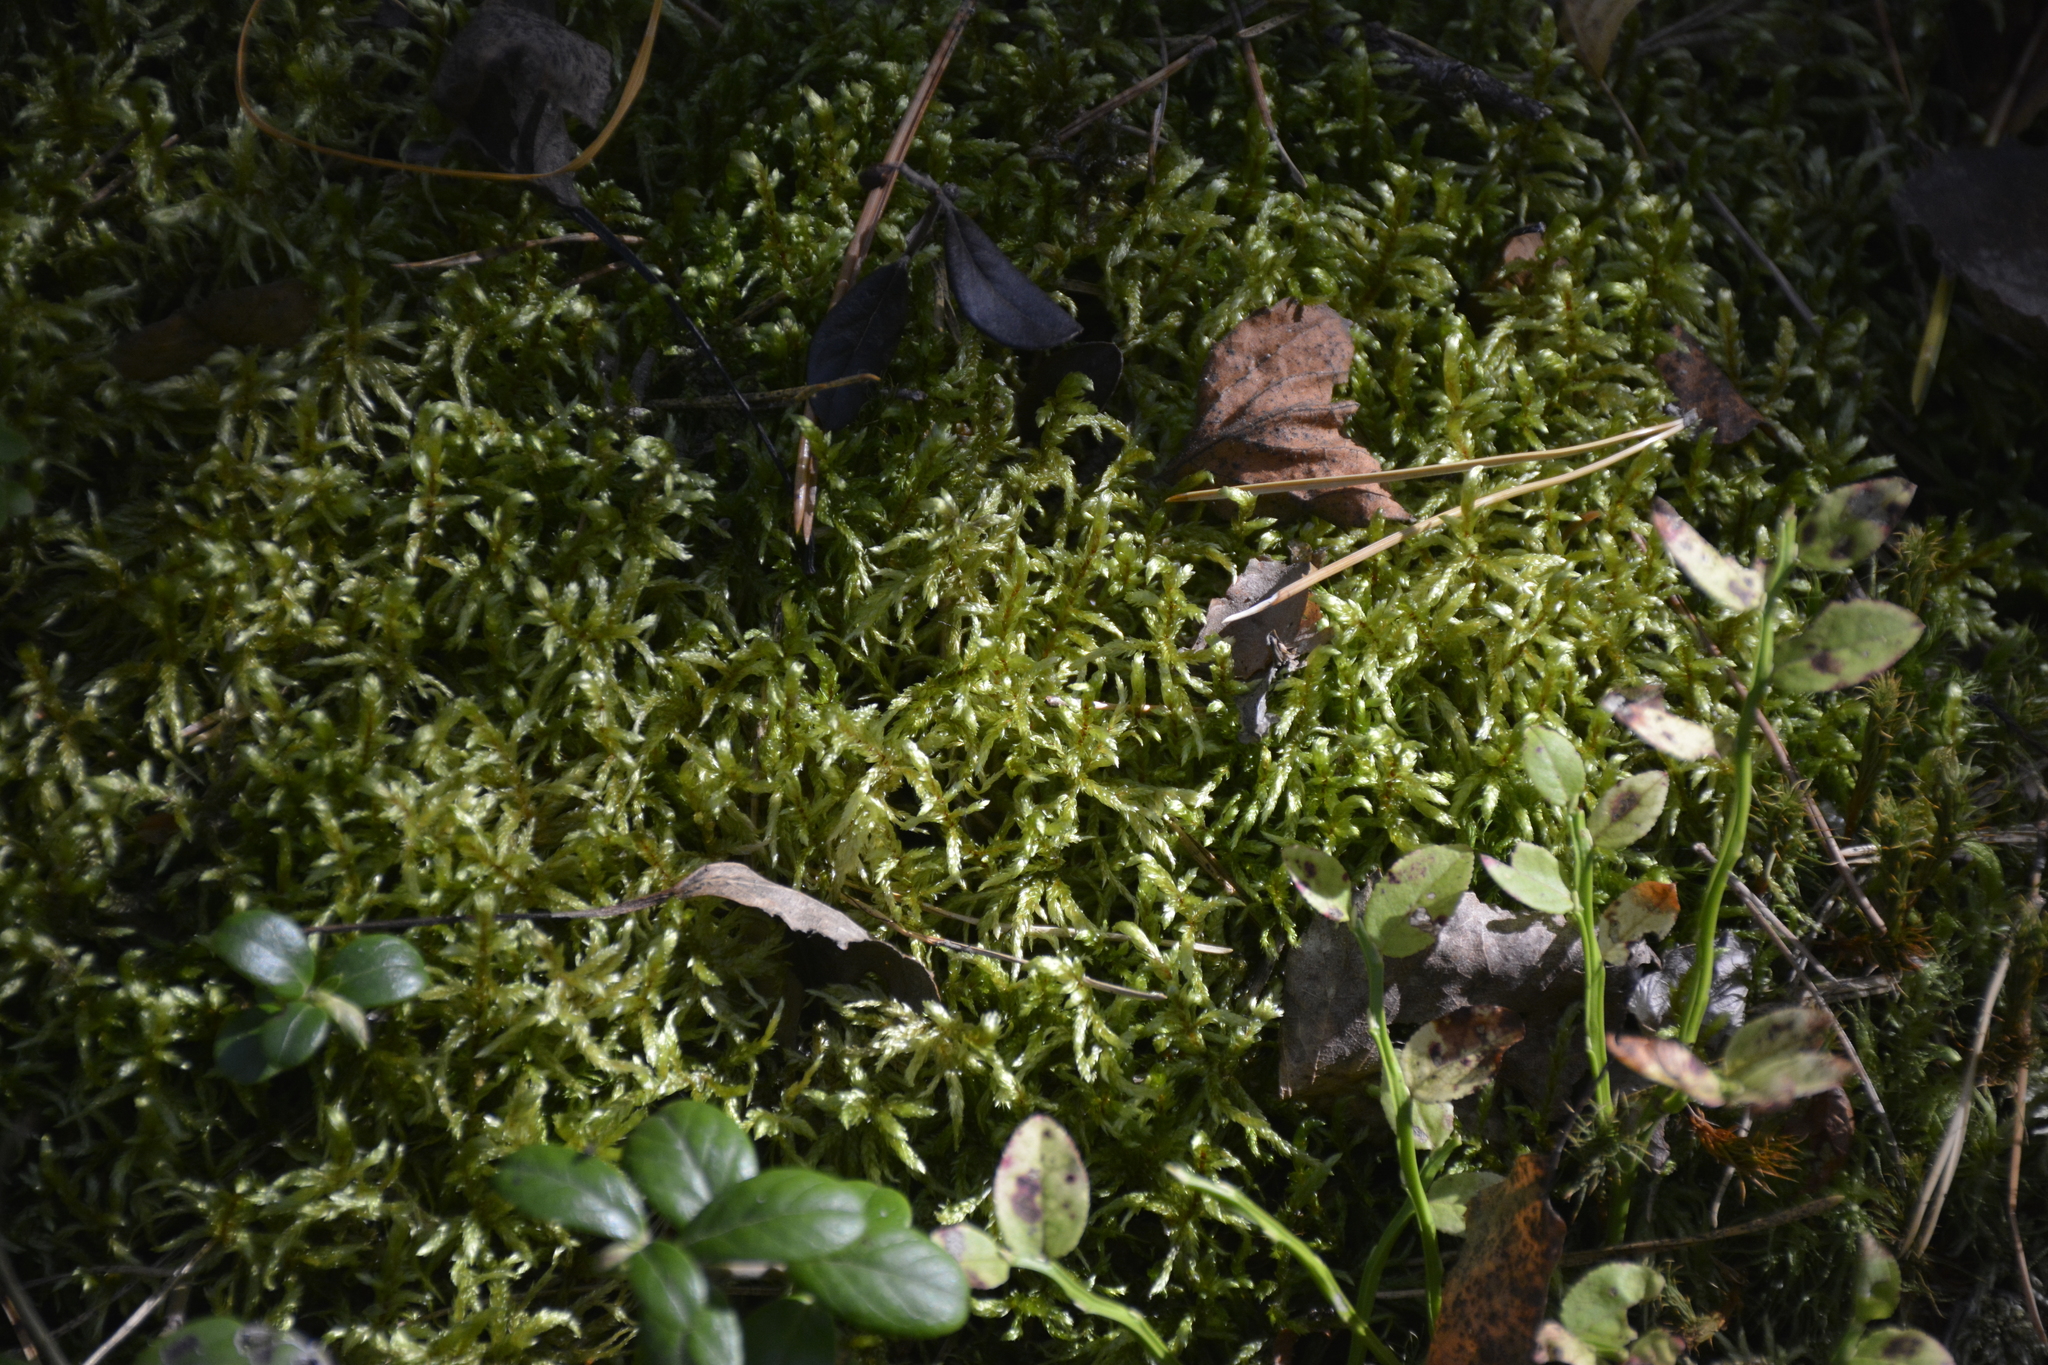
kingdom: Plantae
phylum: Bryophyta
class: Bryopsida
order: Hypnales
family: Hylocomiaceae
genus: Pleurozium
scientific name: Pleurozium schreberi
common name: Red-stemmed feather moss
